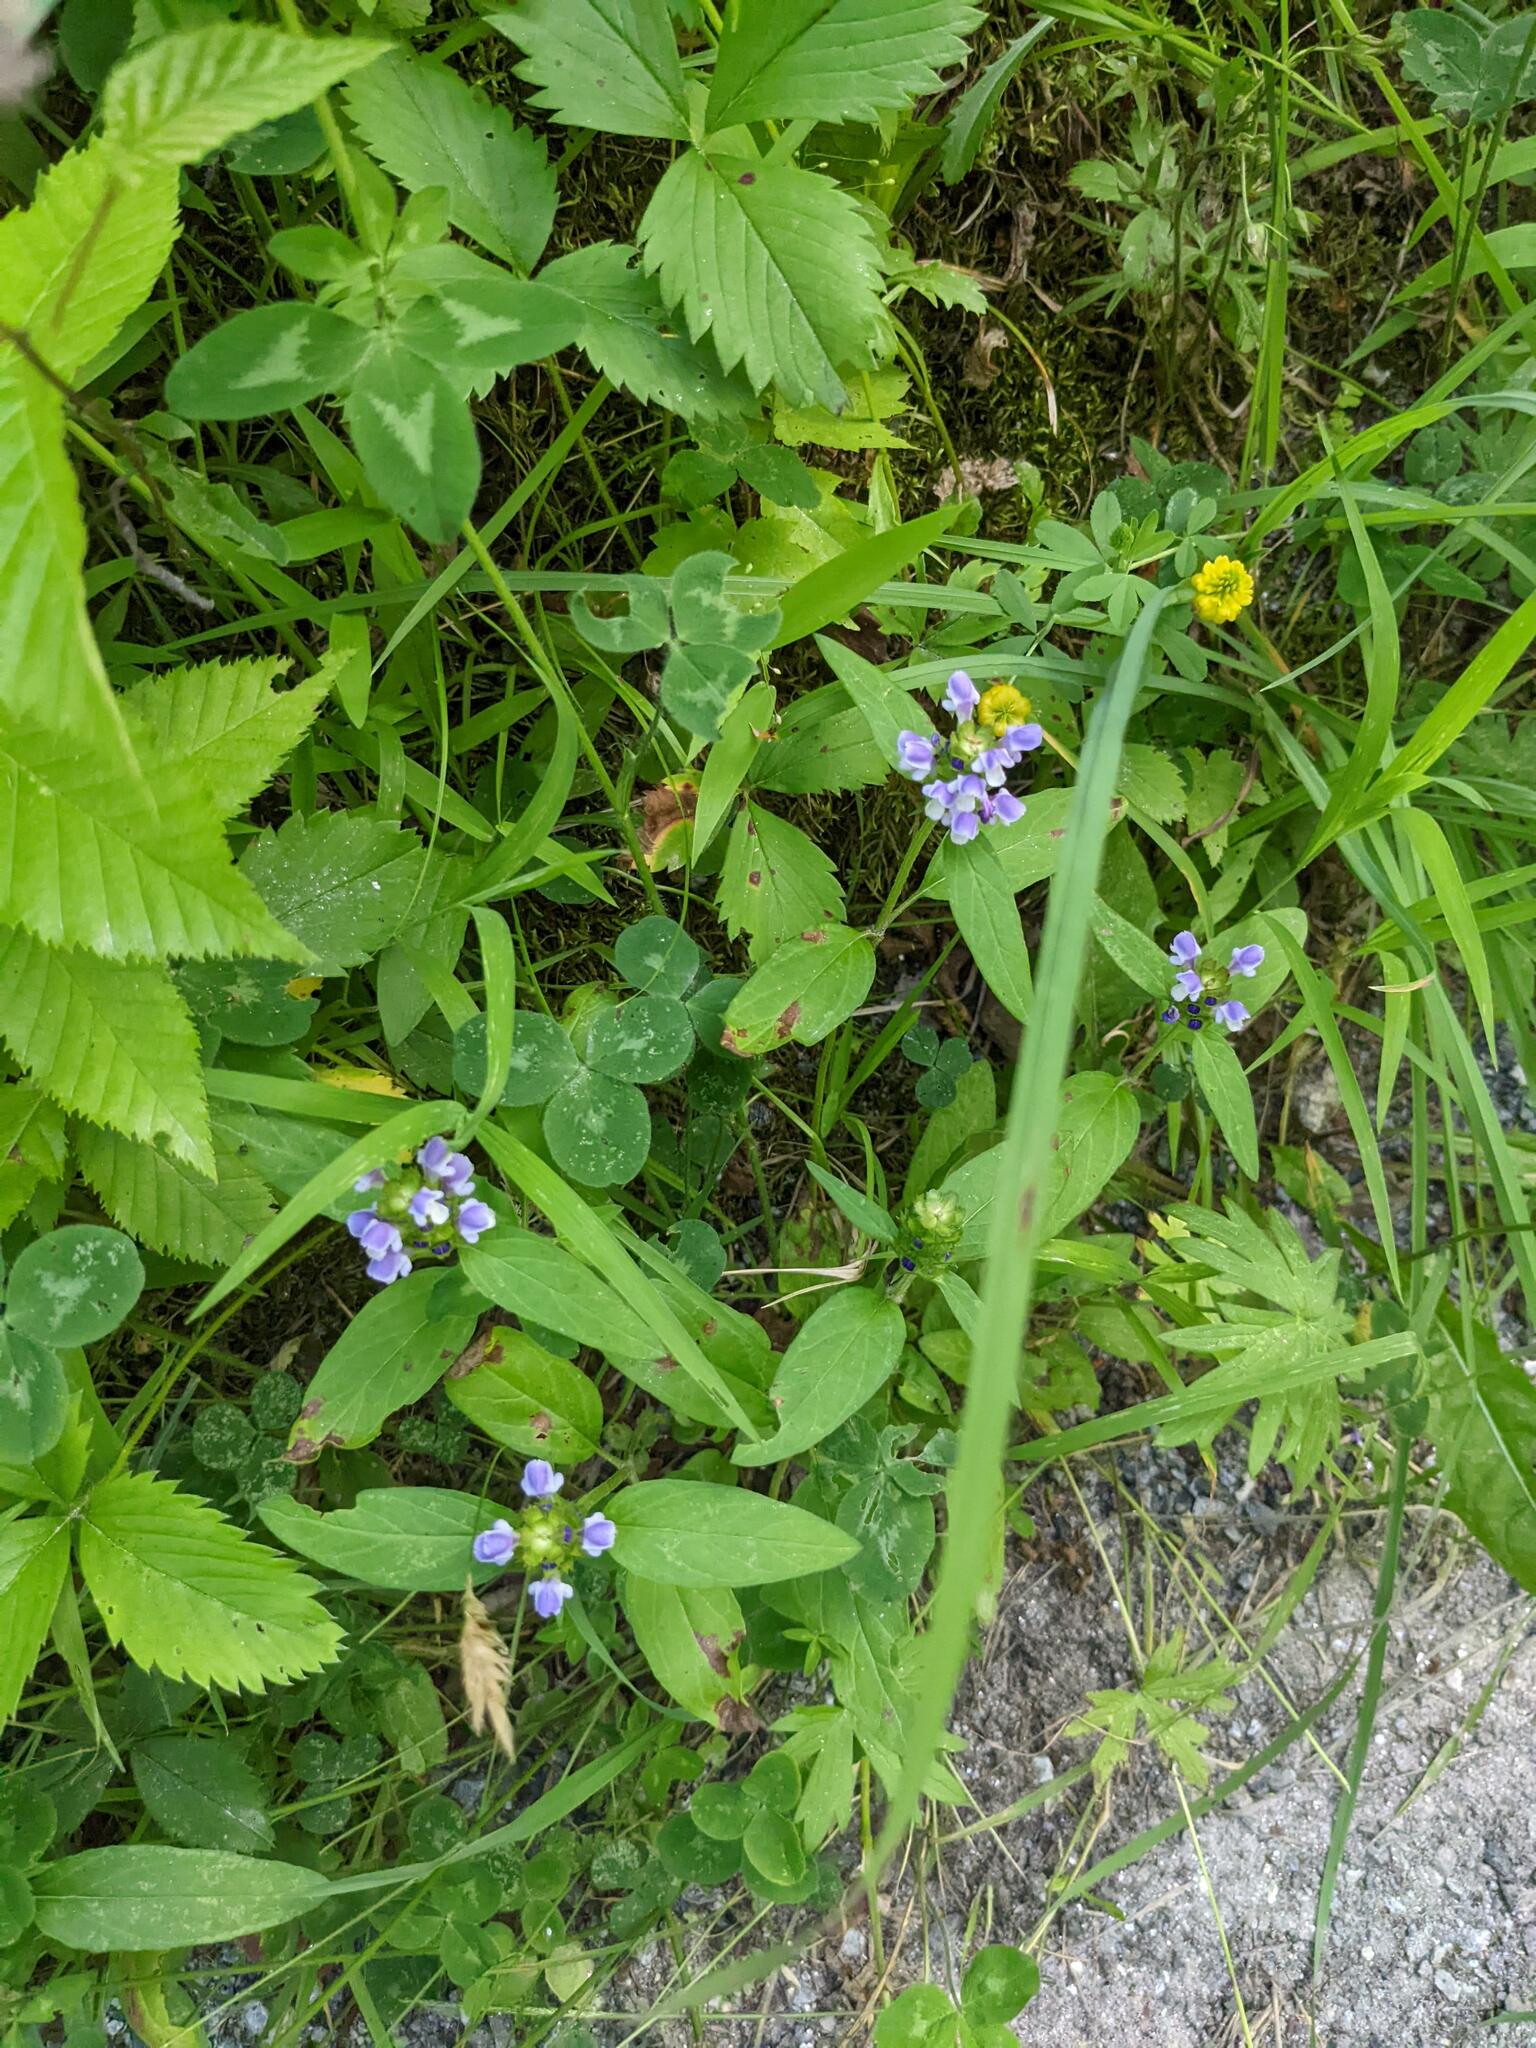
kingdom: Plantae
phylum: Tracheophyta
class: Magnoliopsida
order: Lamiales
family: Lamiaceae
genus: Prunella
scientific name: Prunella vulgaris
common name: Heal-all
